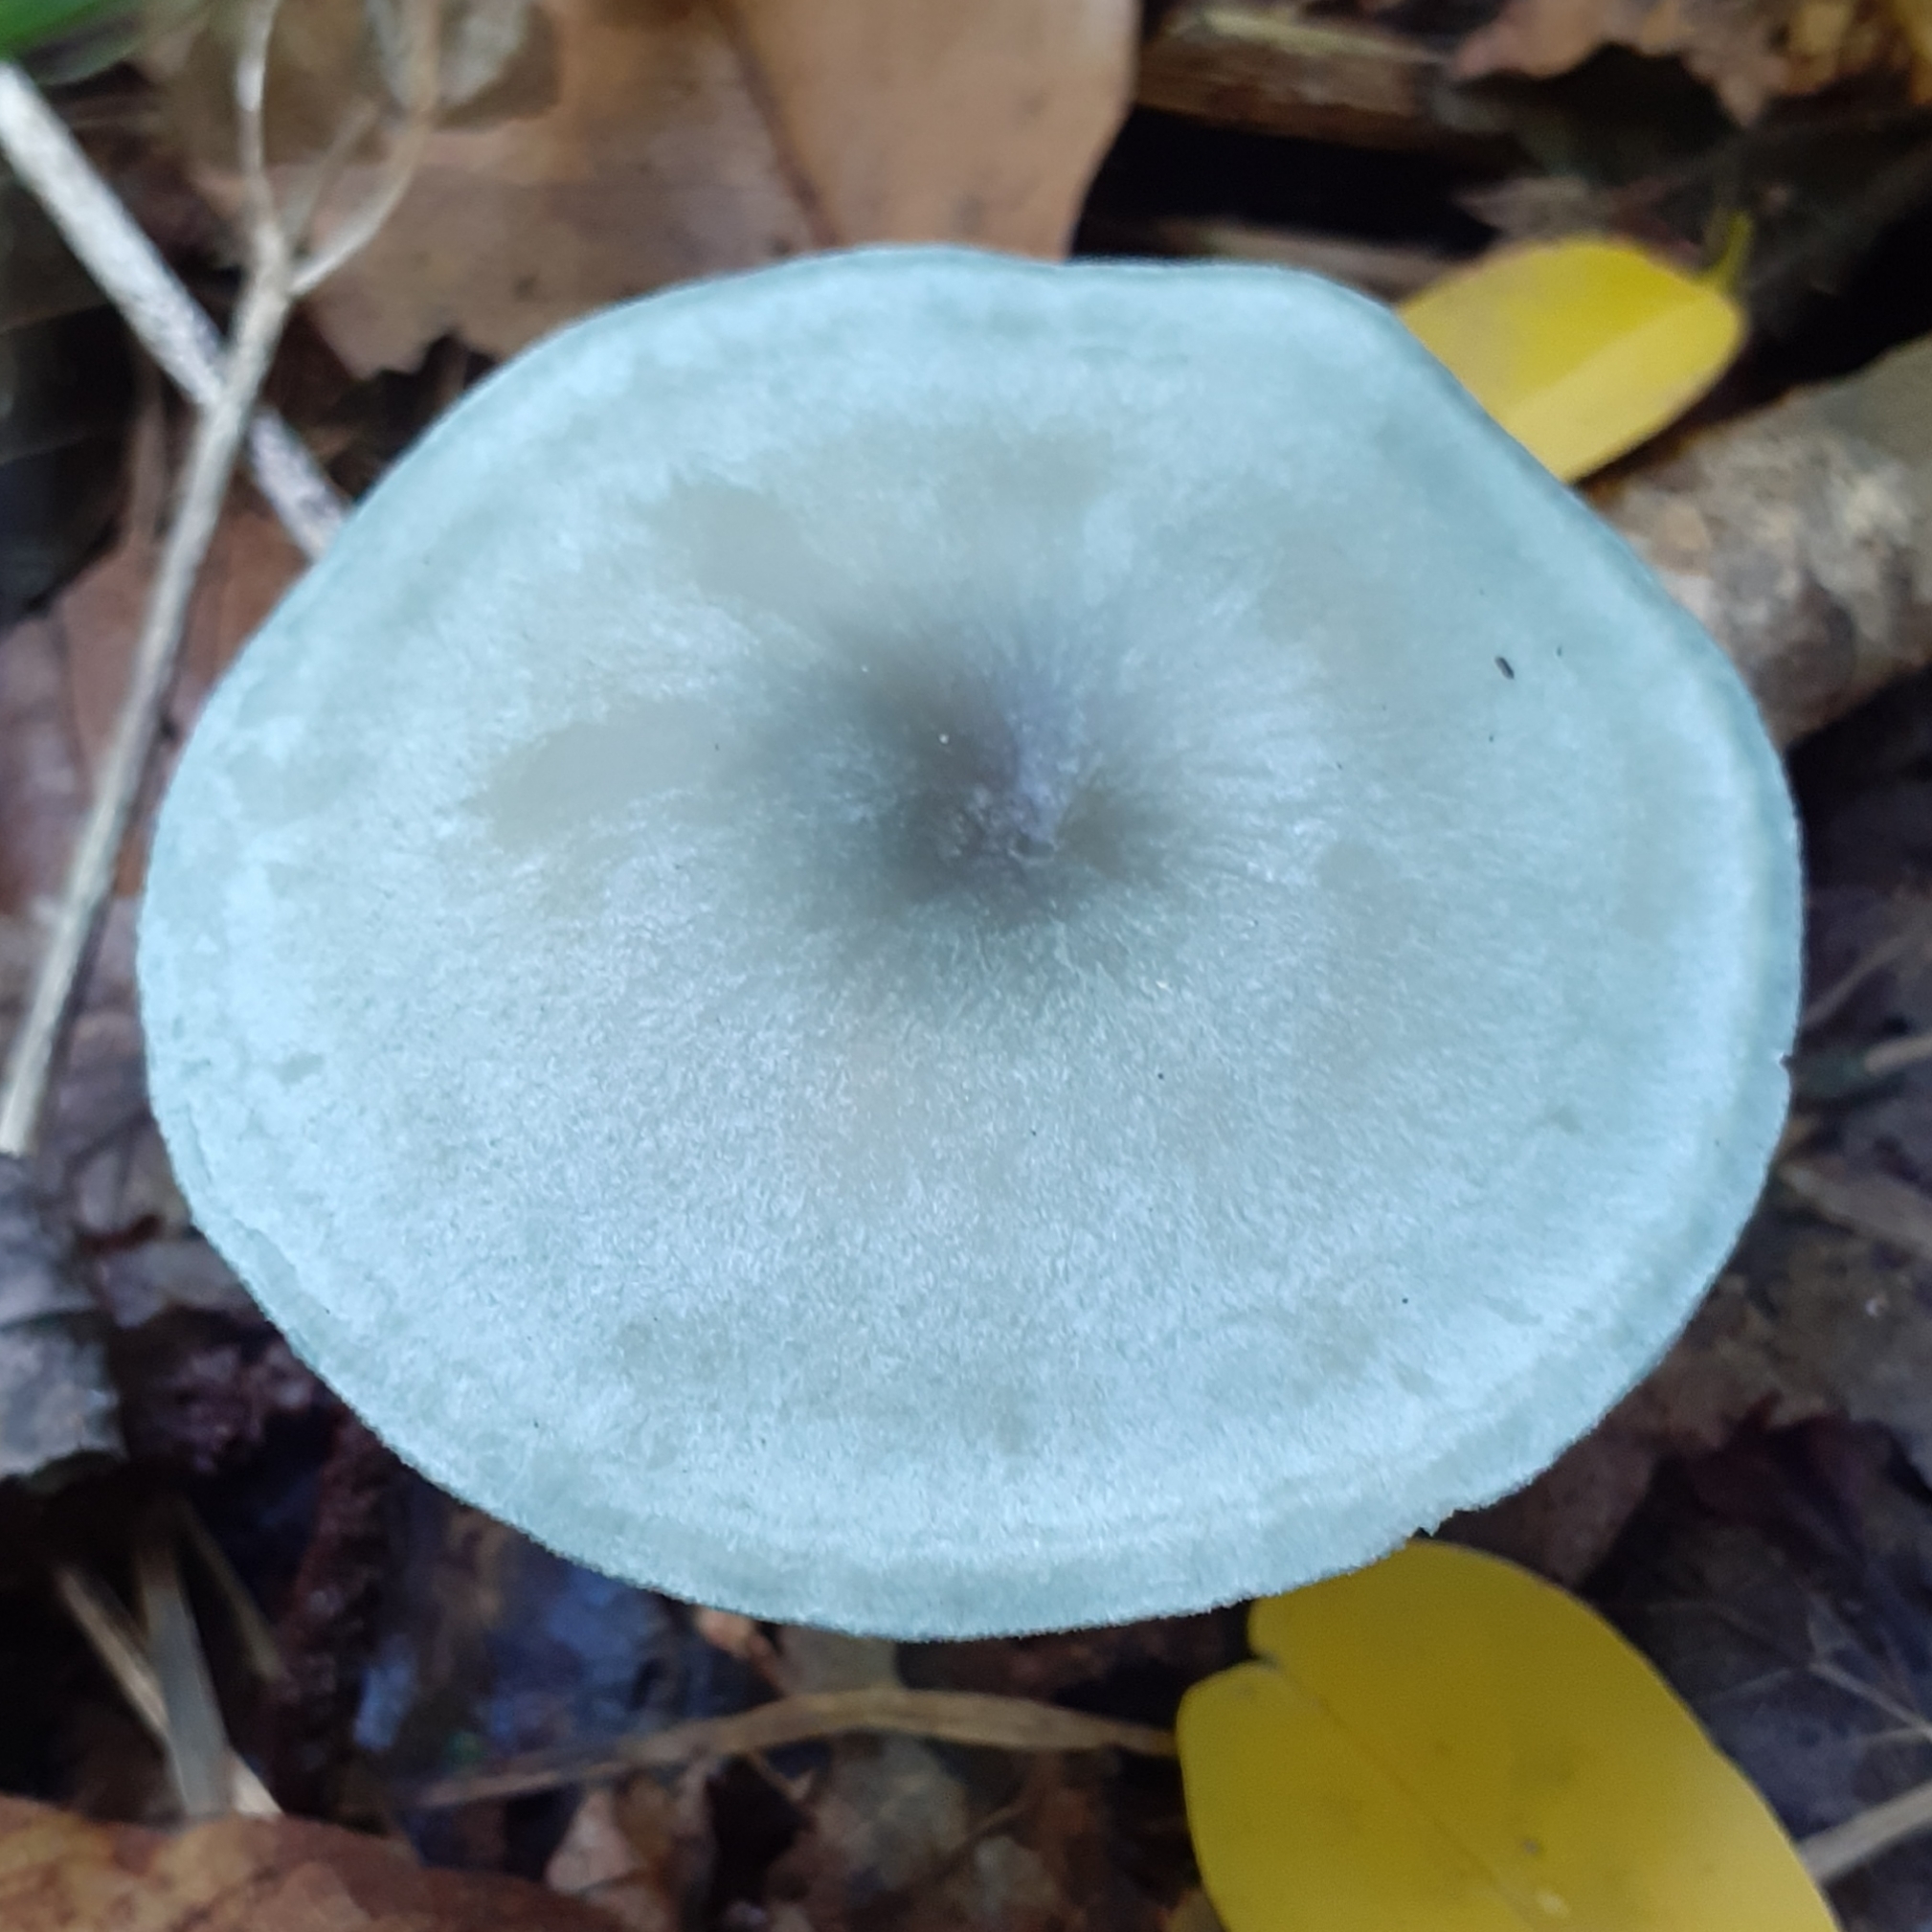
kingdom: Fungi
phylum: Basidiomycota
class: Agaricomycetes
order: Agaricales
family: Tricholomataceae
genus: Collybia
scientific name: Collybia
